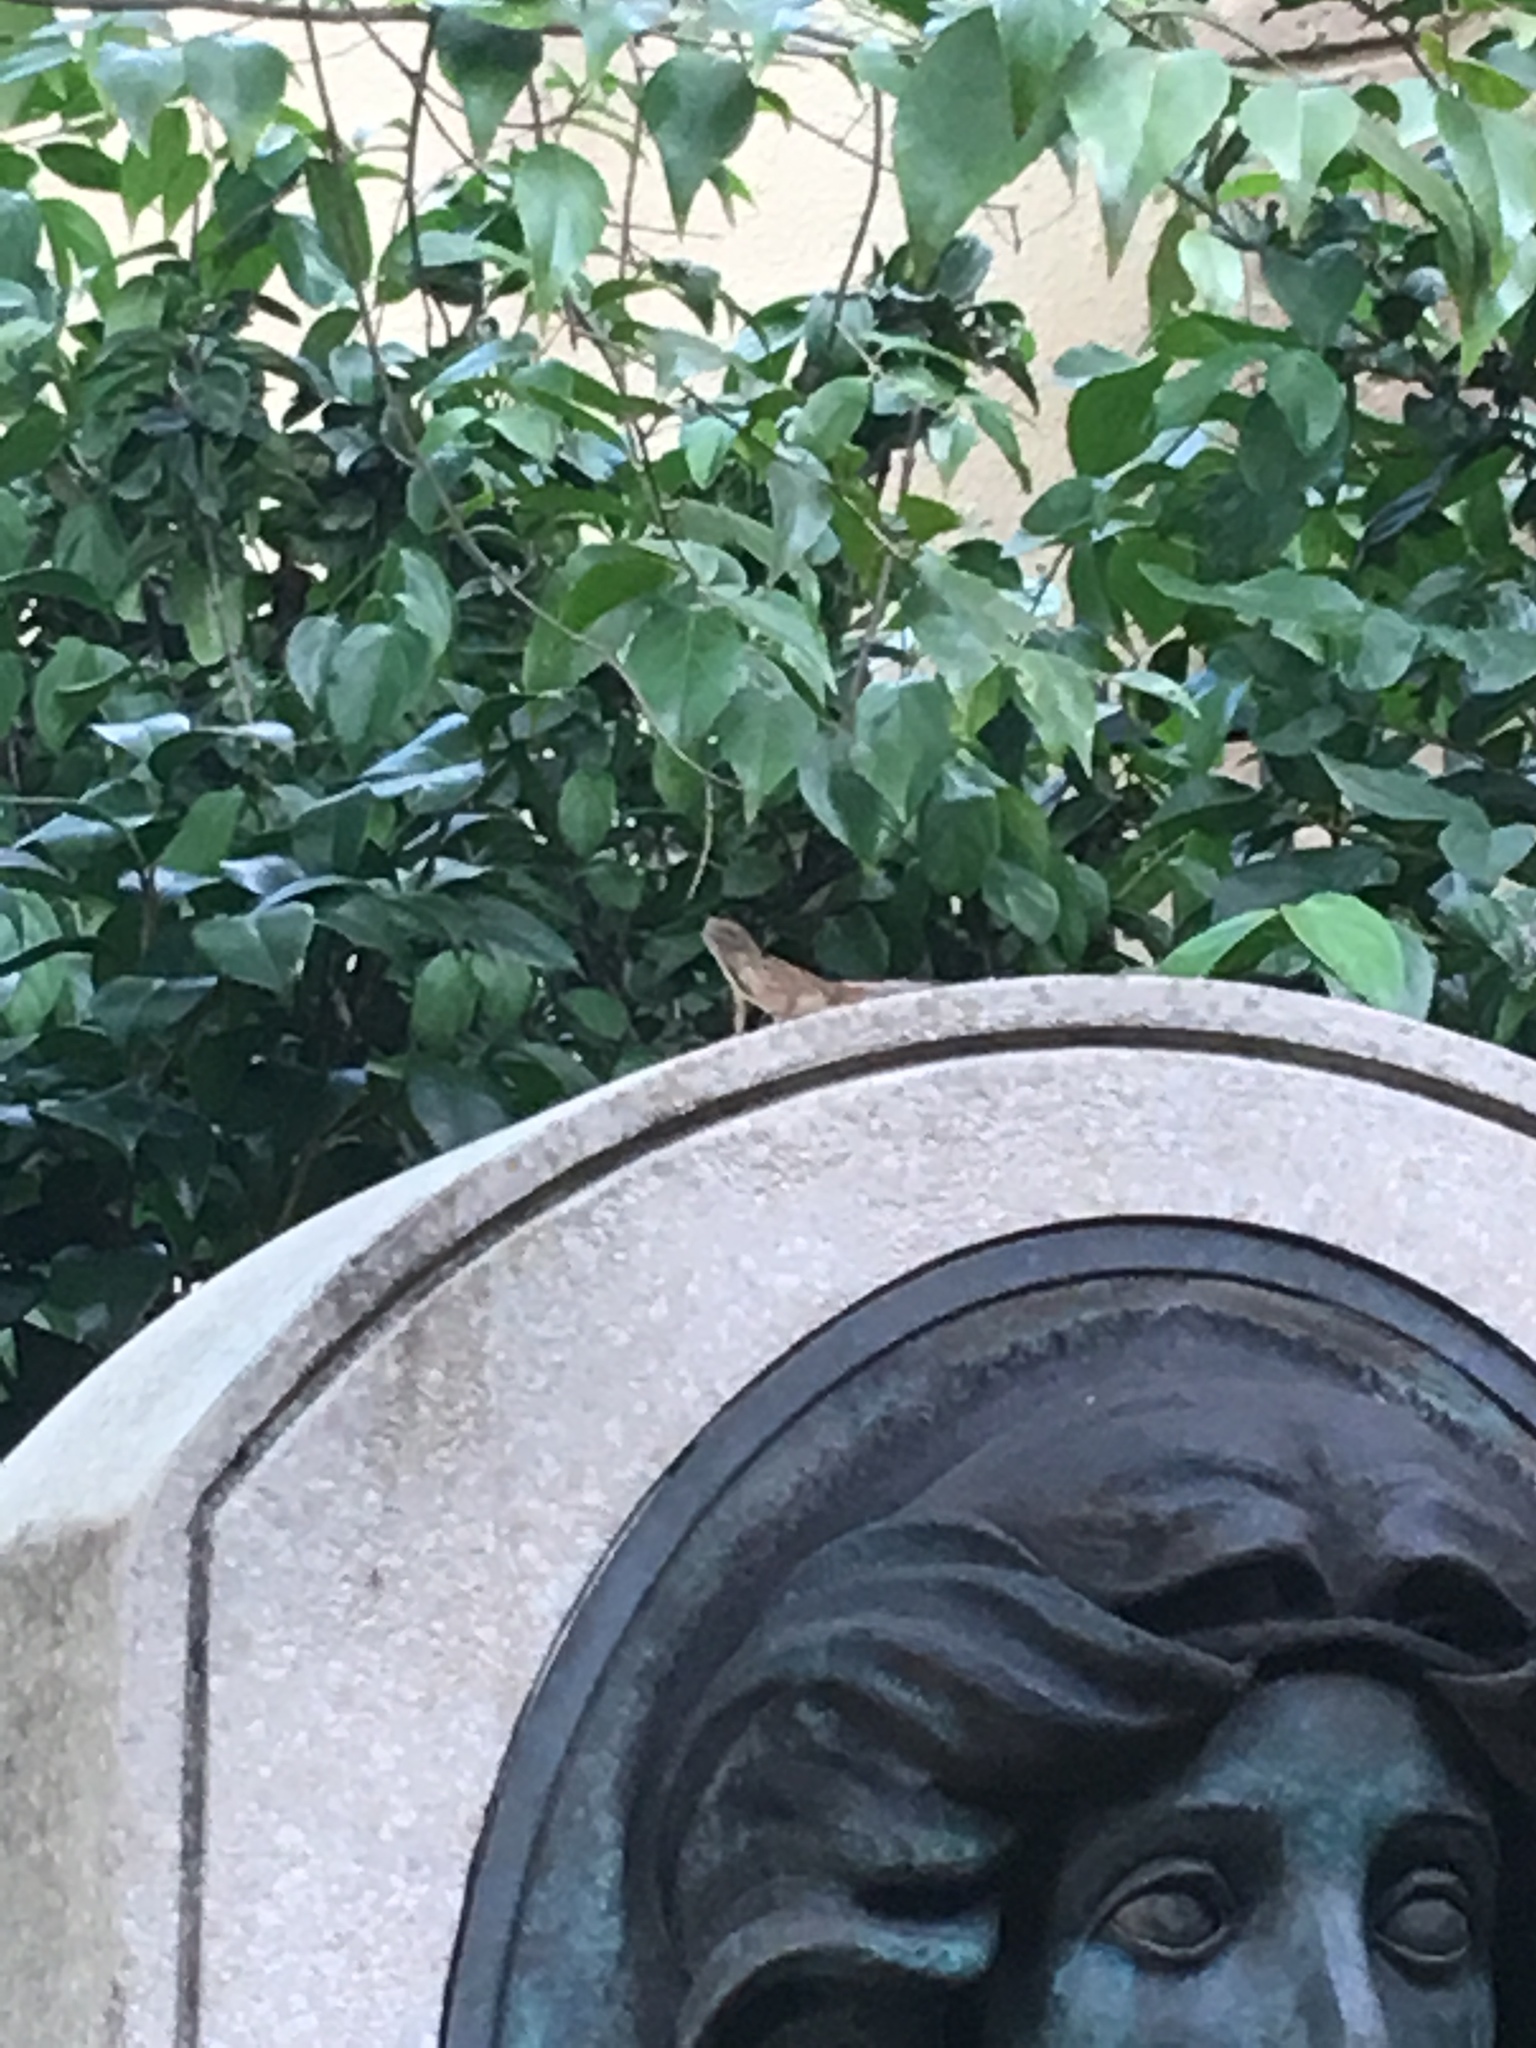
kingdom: Animalia
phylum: Chordata
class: Squamata
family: Dactyloidae
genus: Anolis
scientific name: Anolis sagrei
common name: Brown anole
